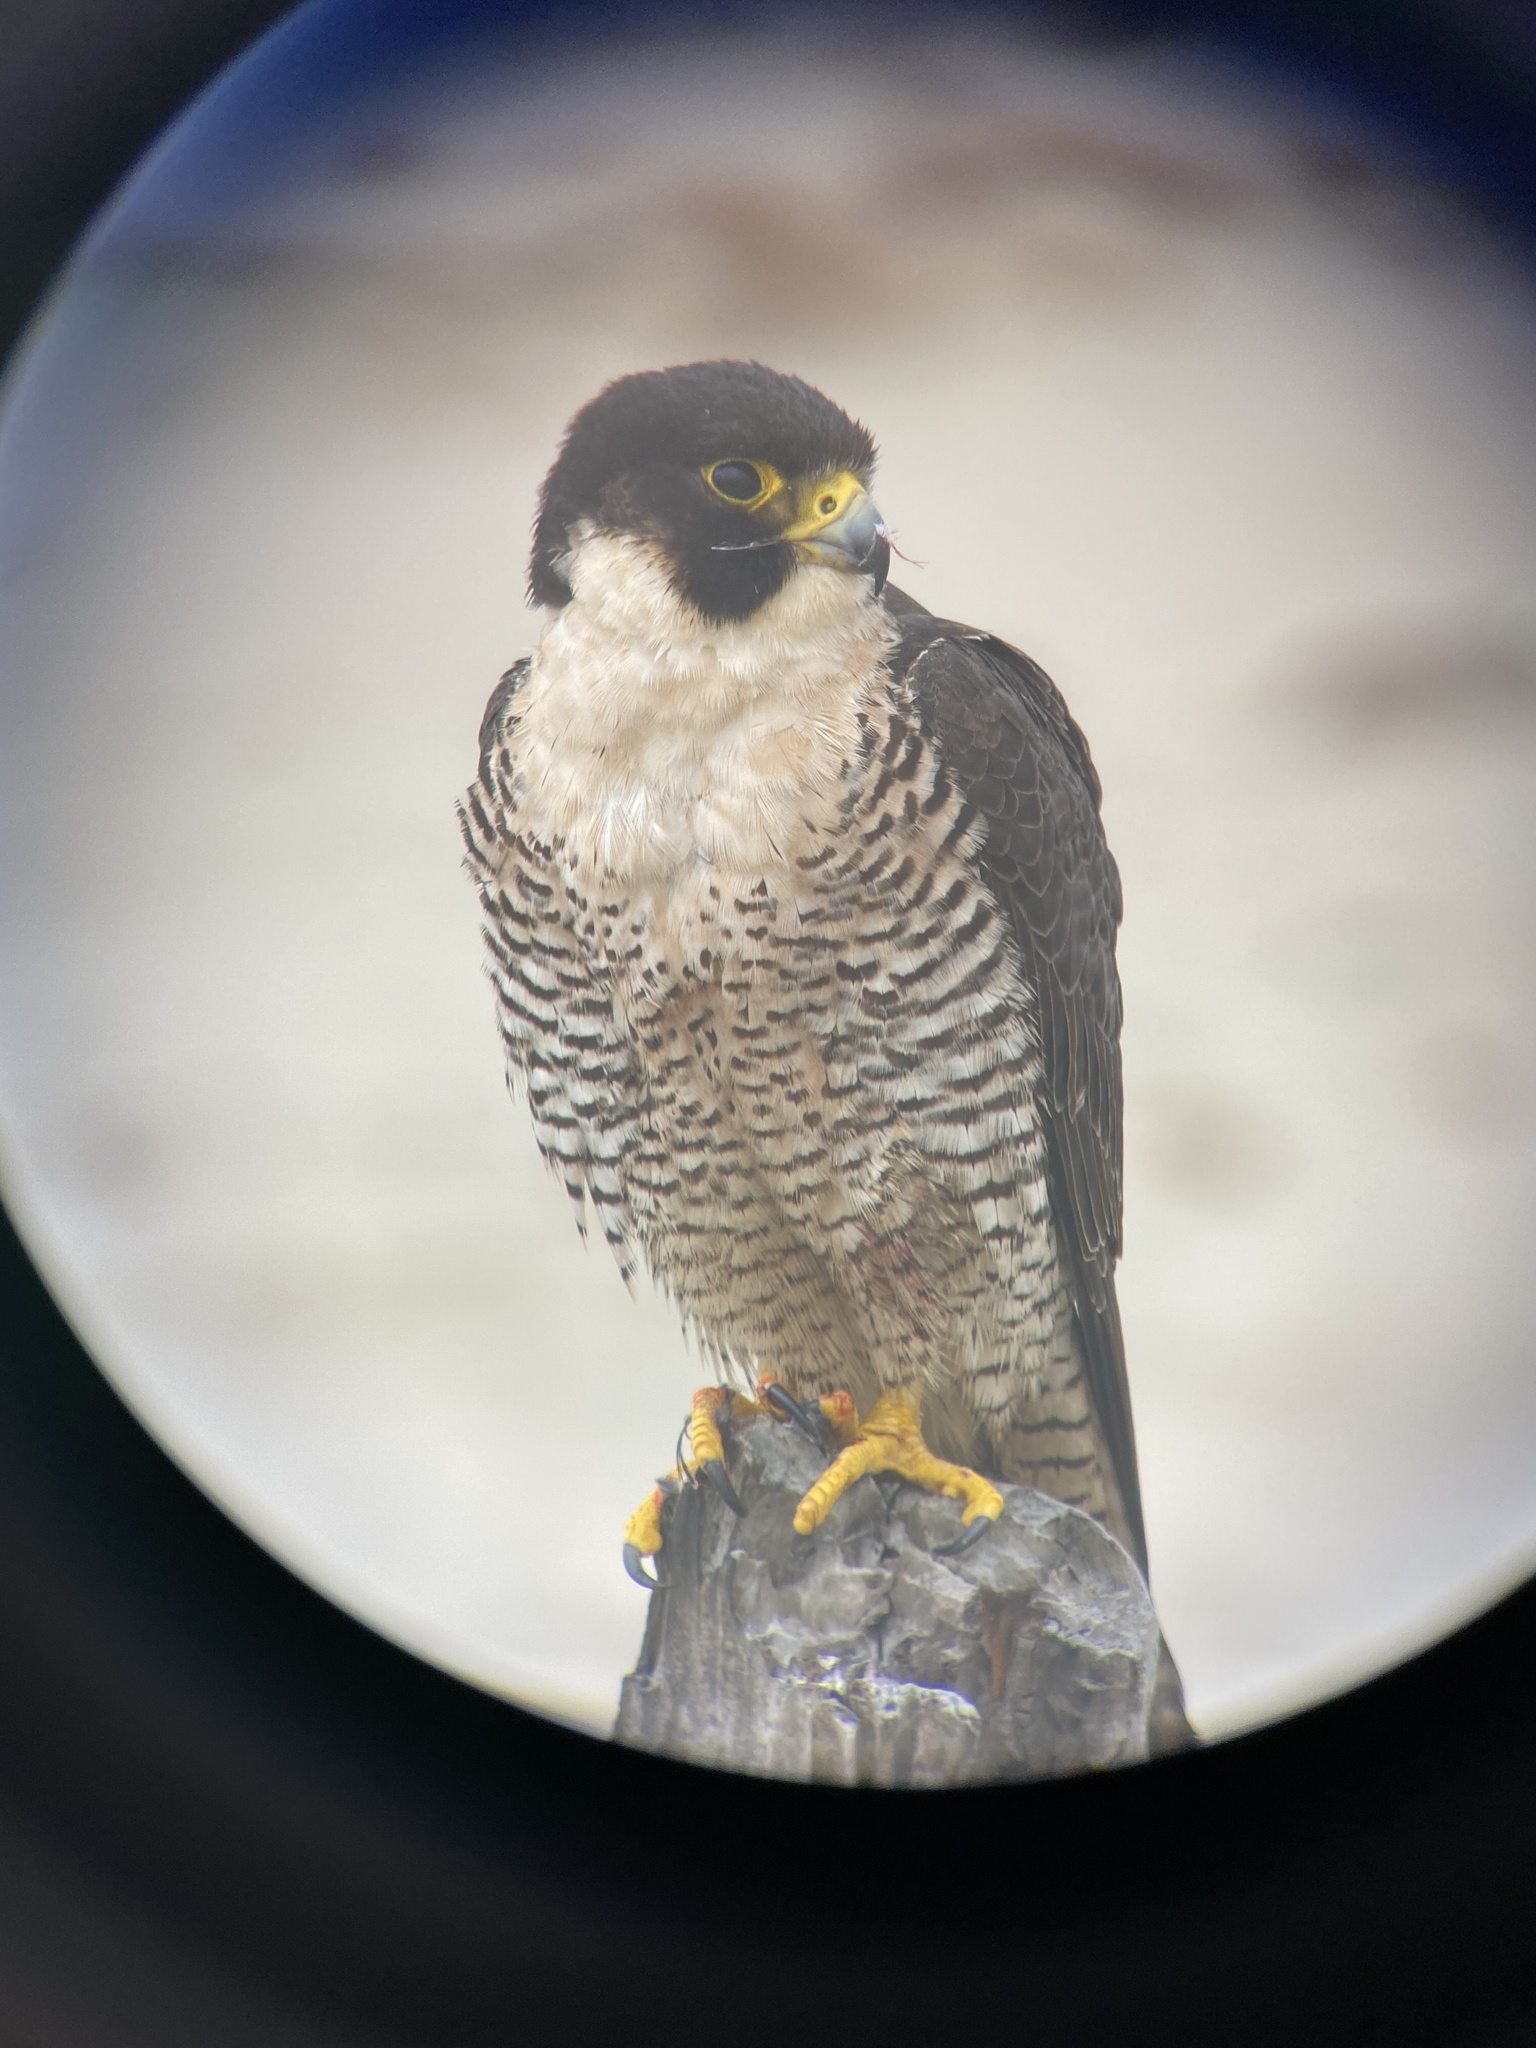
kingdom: Animalia
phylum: Chordata
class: Aves
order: Falconiformes
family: Falconidae
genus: Falco
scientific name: Falco peregrinus
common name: Peregrine falcon
